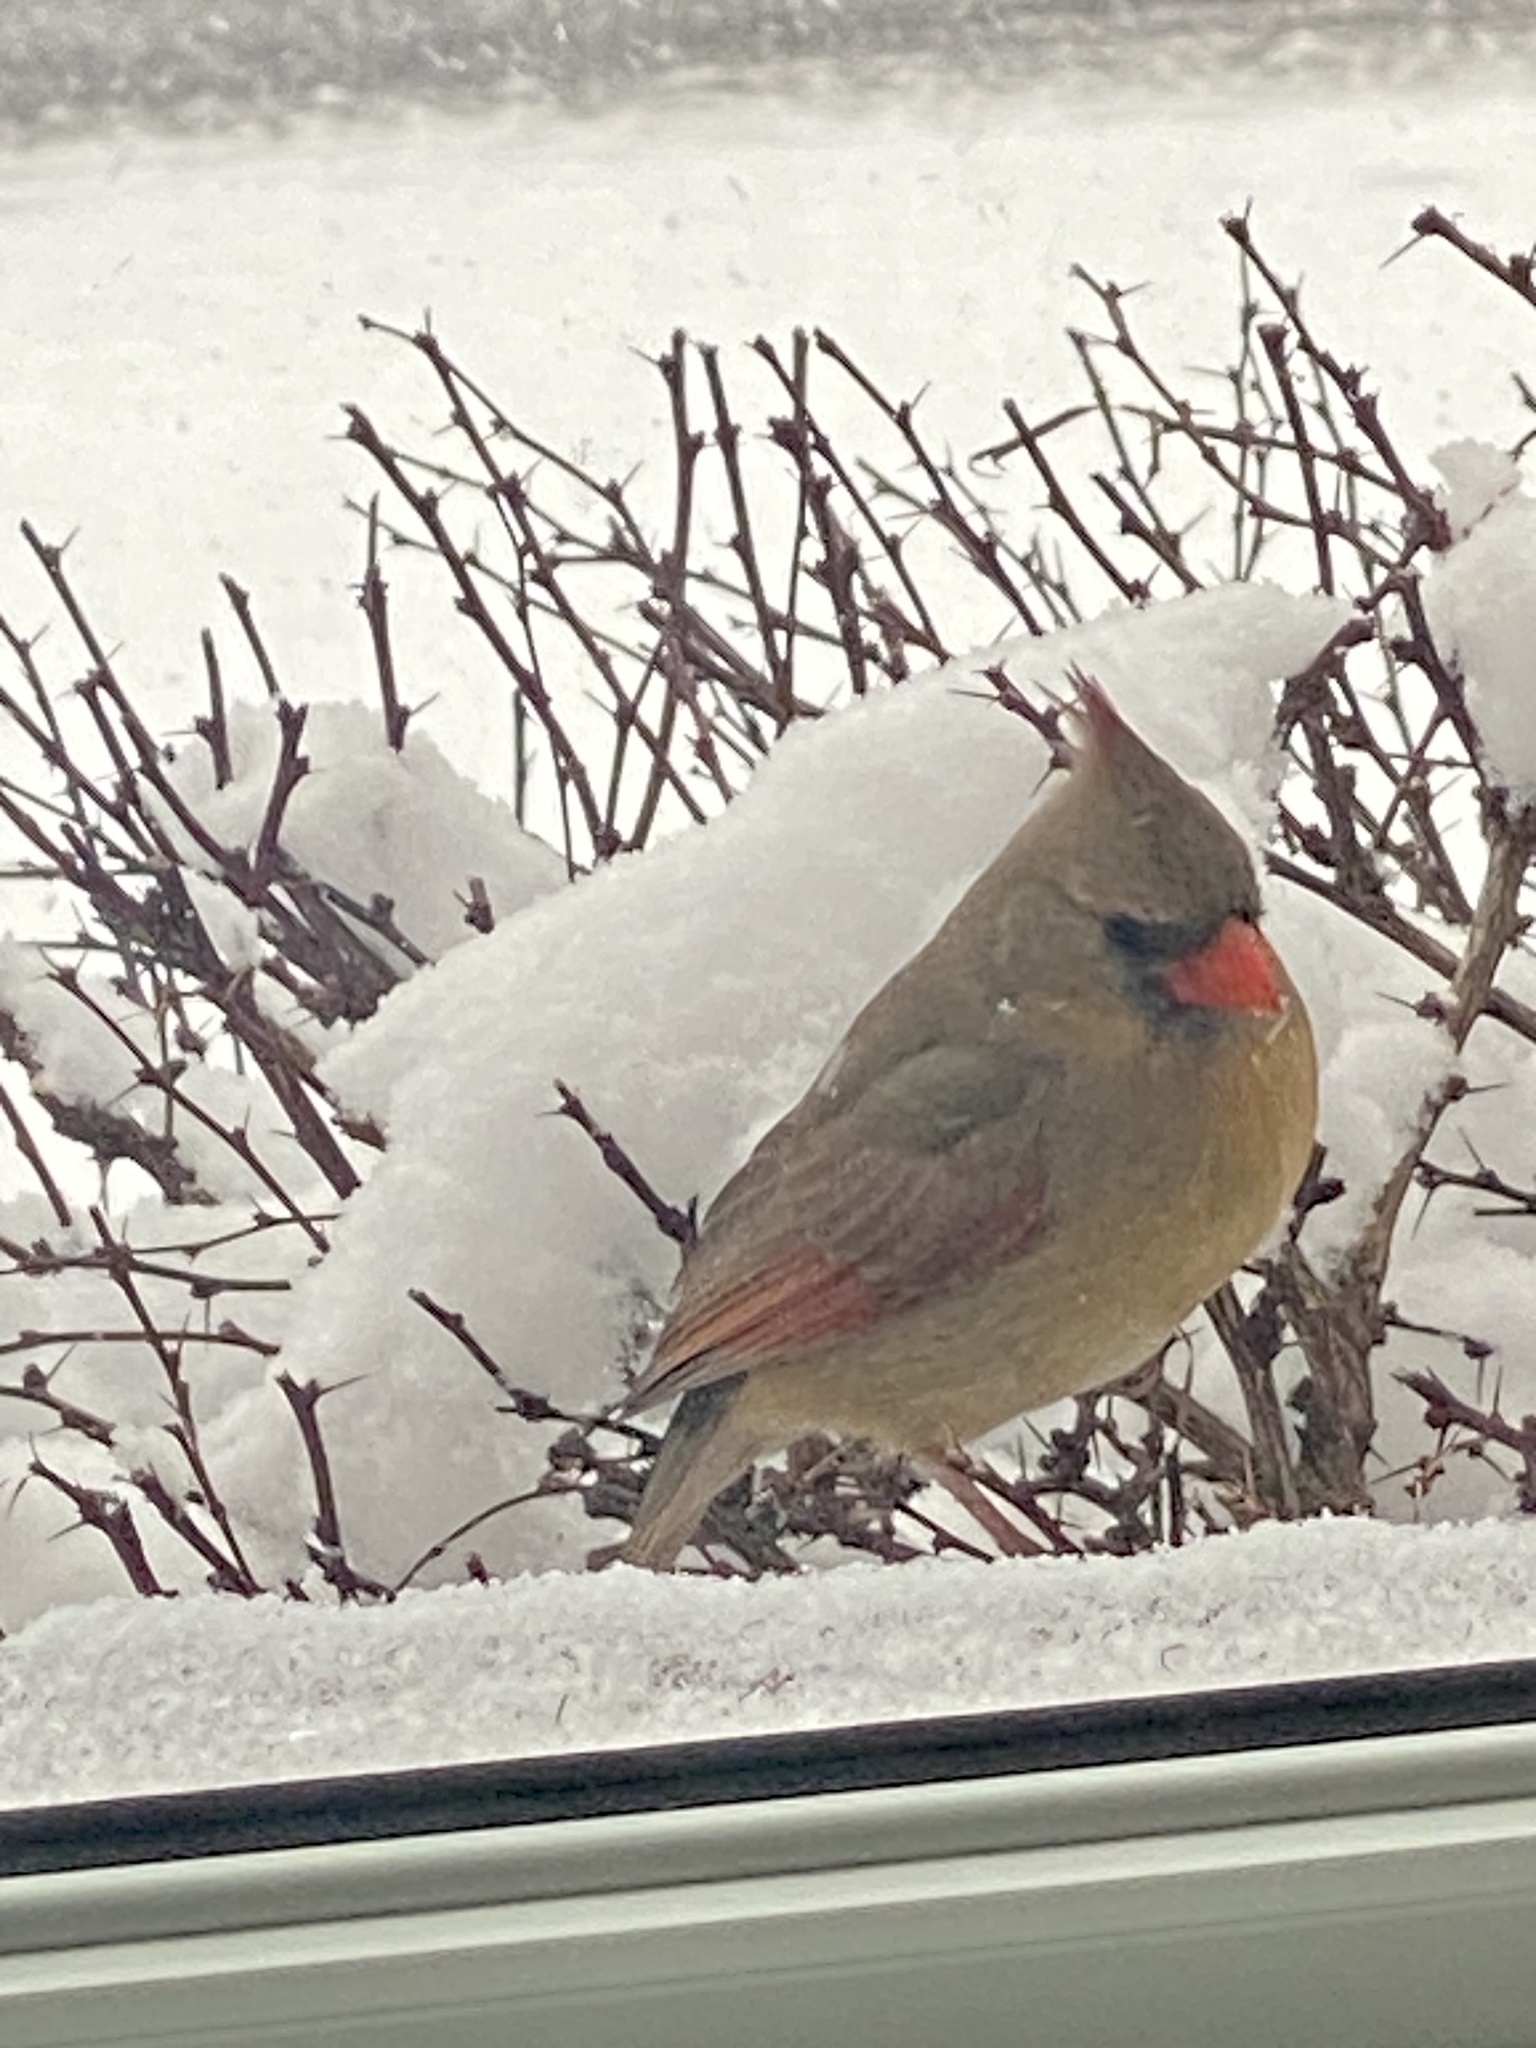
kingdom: Animalia
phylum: Chordata
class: Aves
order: Passeriformes
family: Cardinalidae
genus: Cardinalis
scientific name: Cardinalis cardinalis
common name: Northern cardinal
